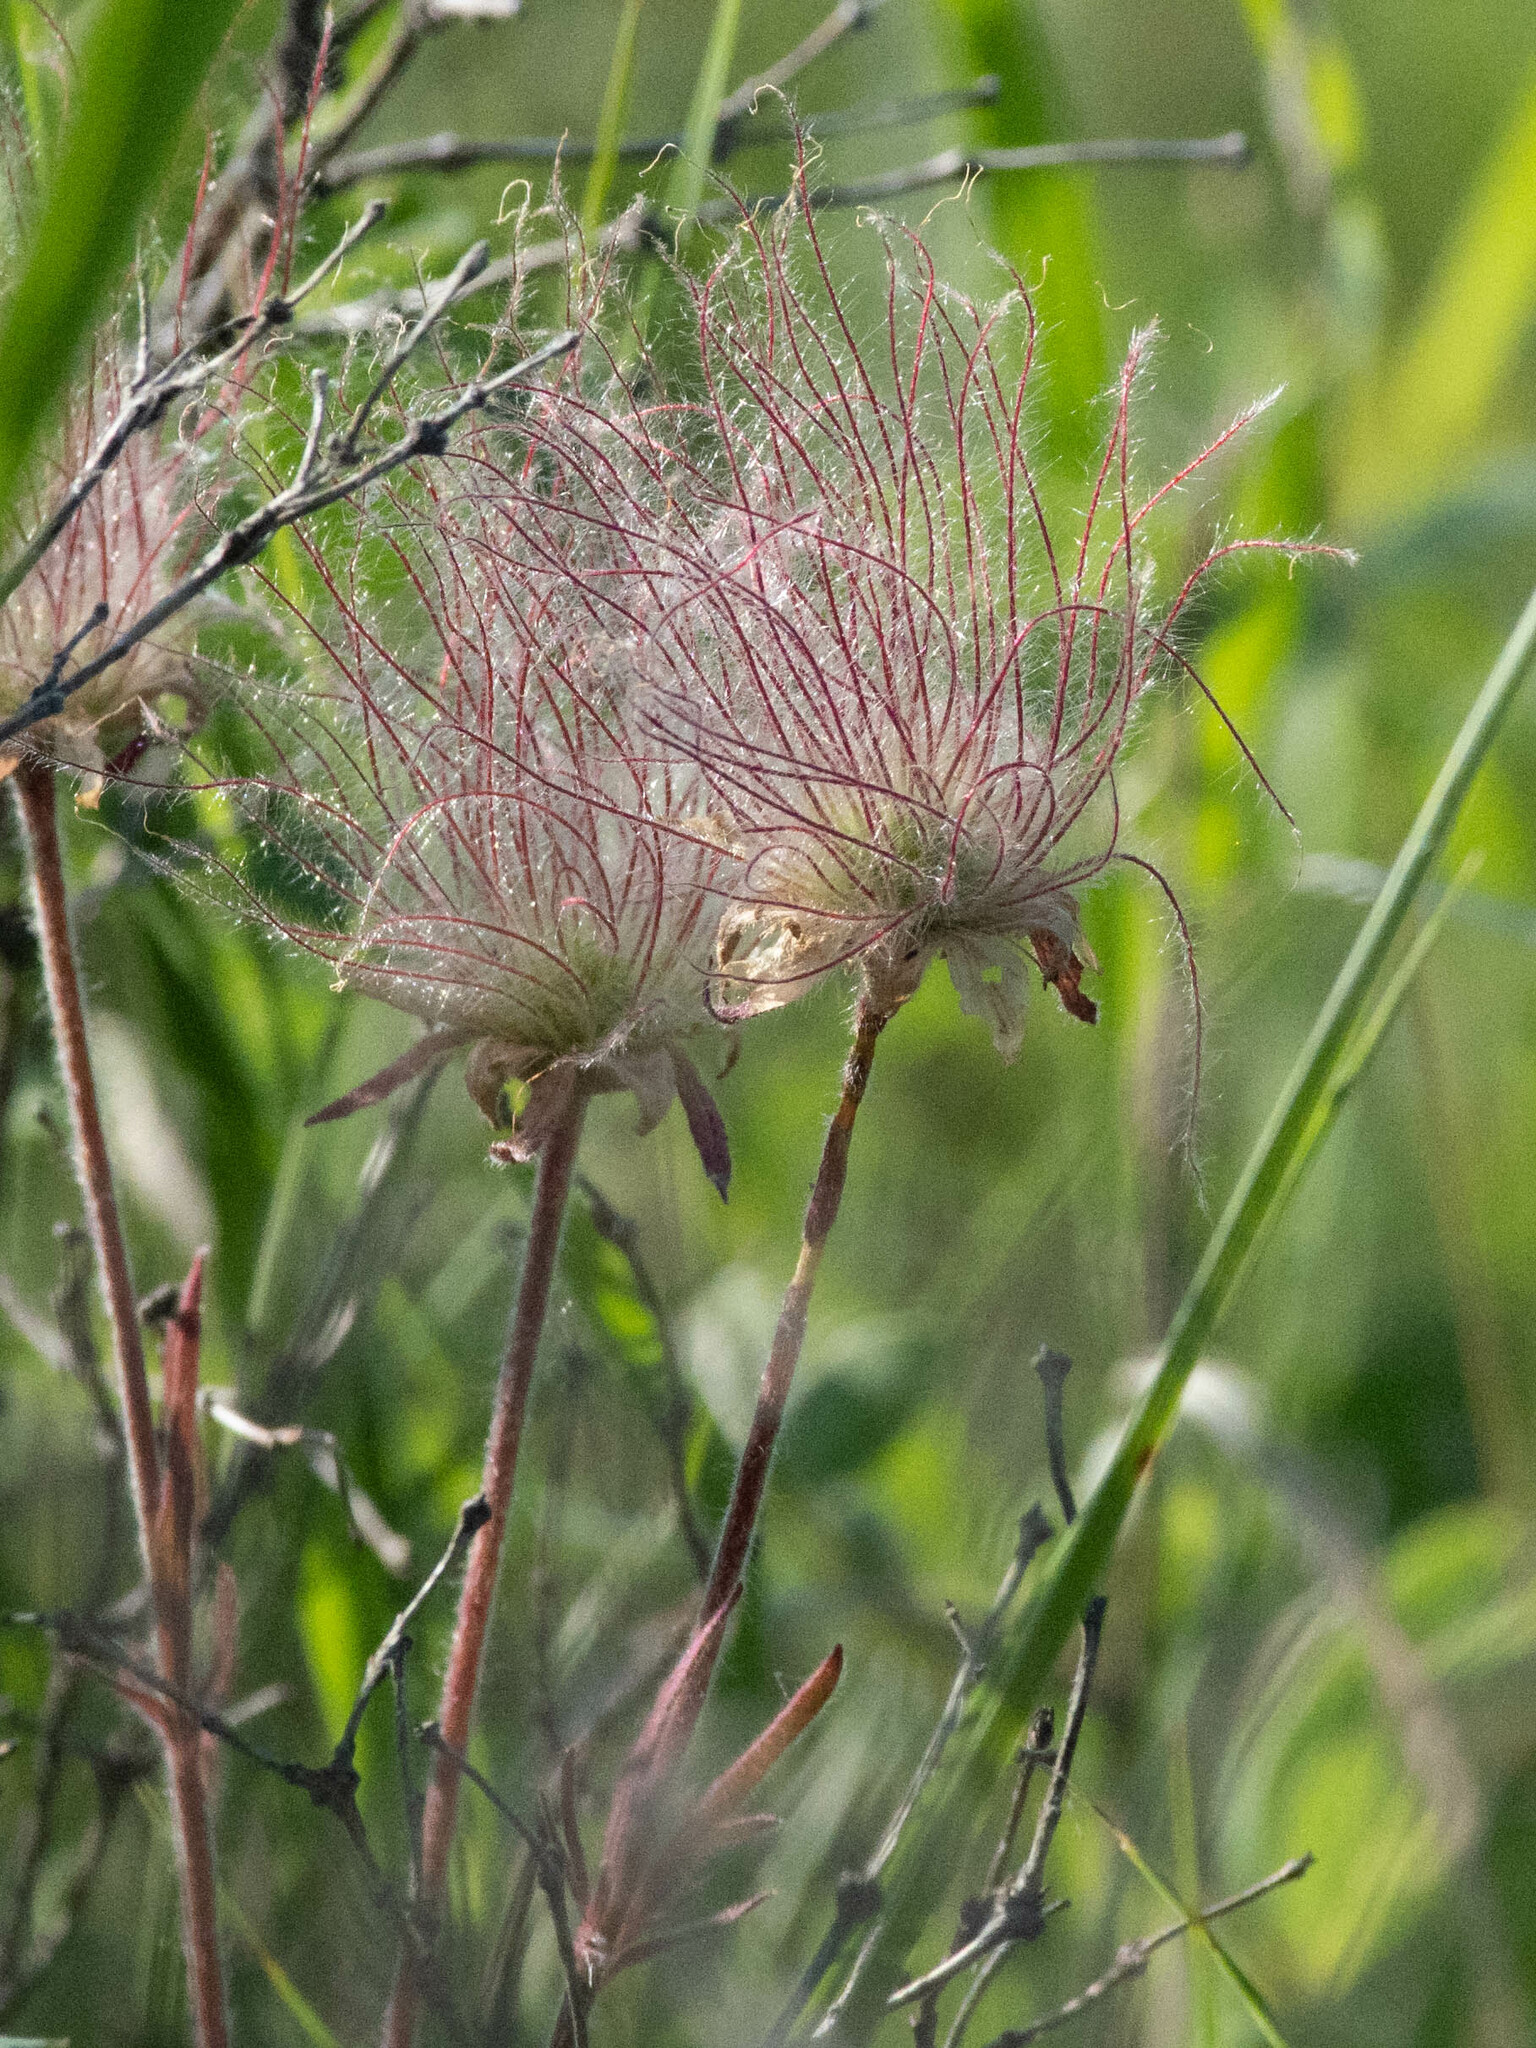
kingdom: Plantae
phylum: Tracheophyta
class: Magnoliopsida
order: Rosales
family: Rosaceae
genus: Geum
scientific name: Geum triflorum
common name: Old man's whiskers
